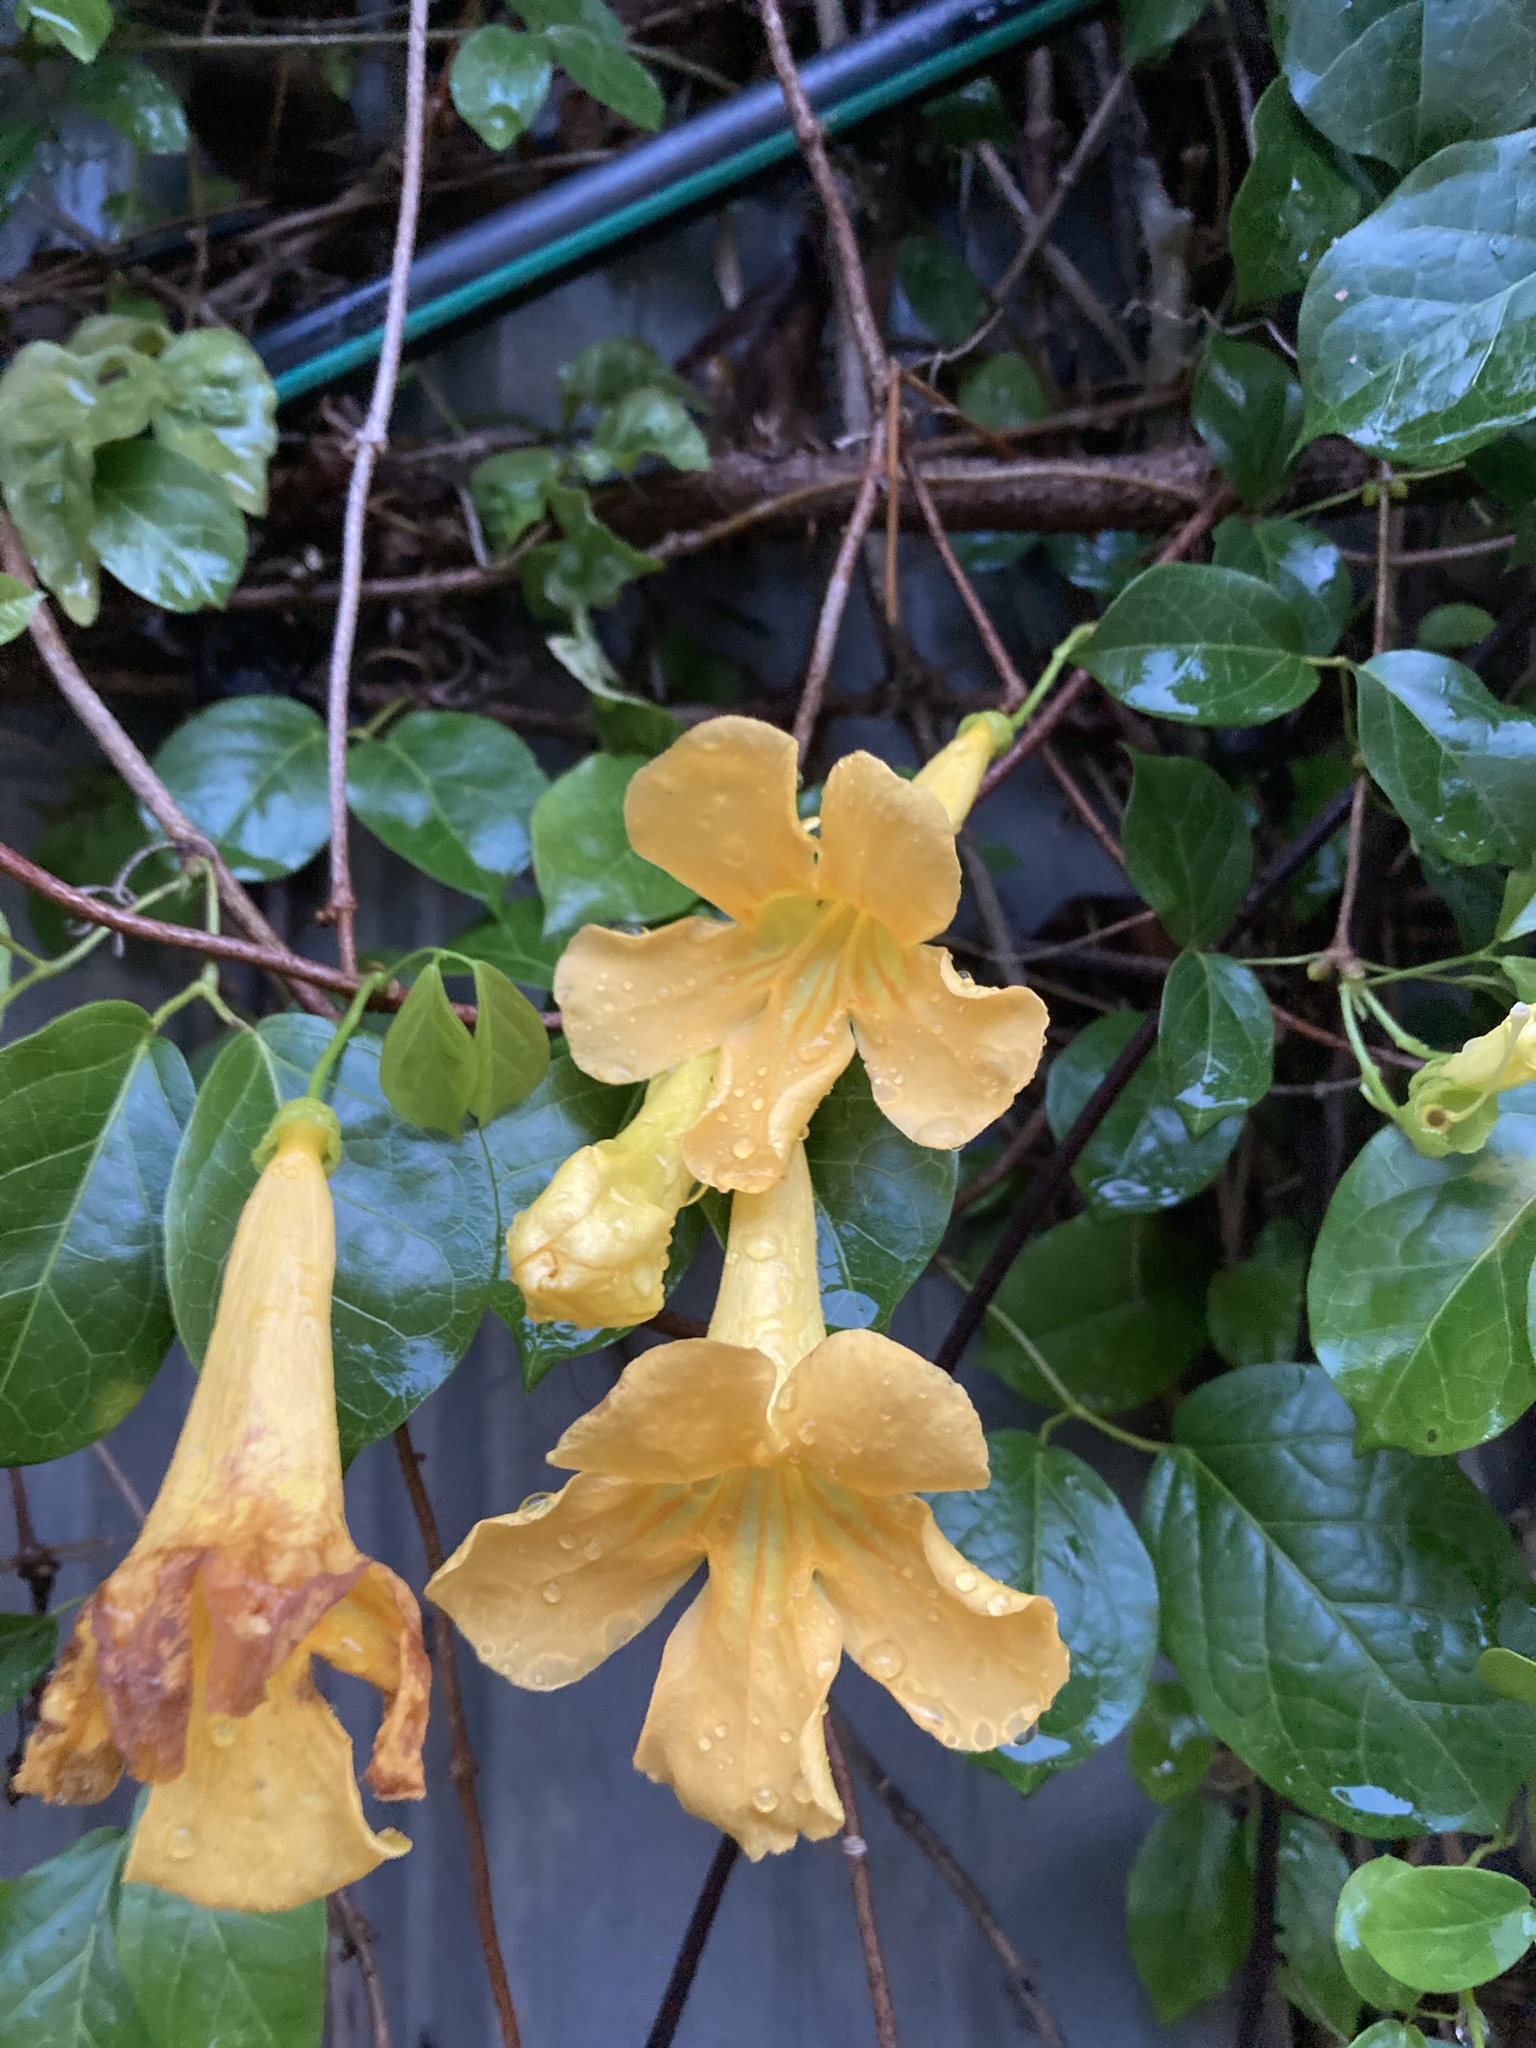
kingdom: Plantae
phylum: Tracheophyta
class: Magnoliopsida
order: Lamiales
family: Bignoniaceae
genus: Dolichandra
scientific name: Dolichandra unguis-cati
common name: Catclaw vine
